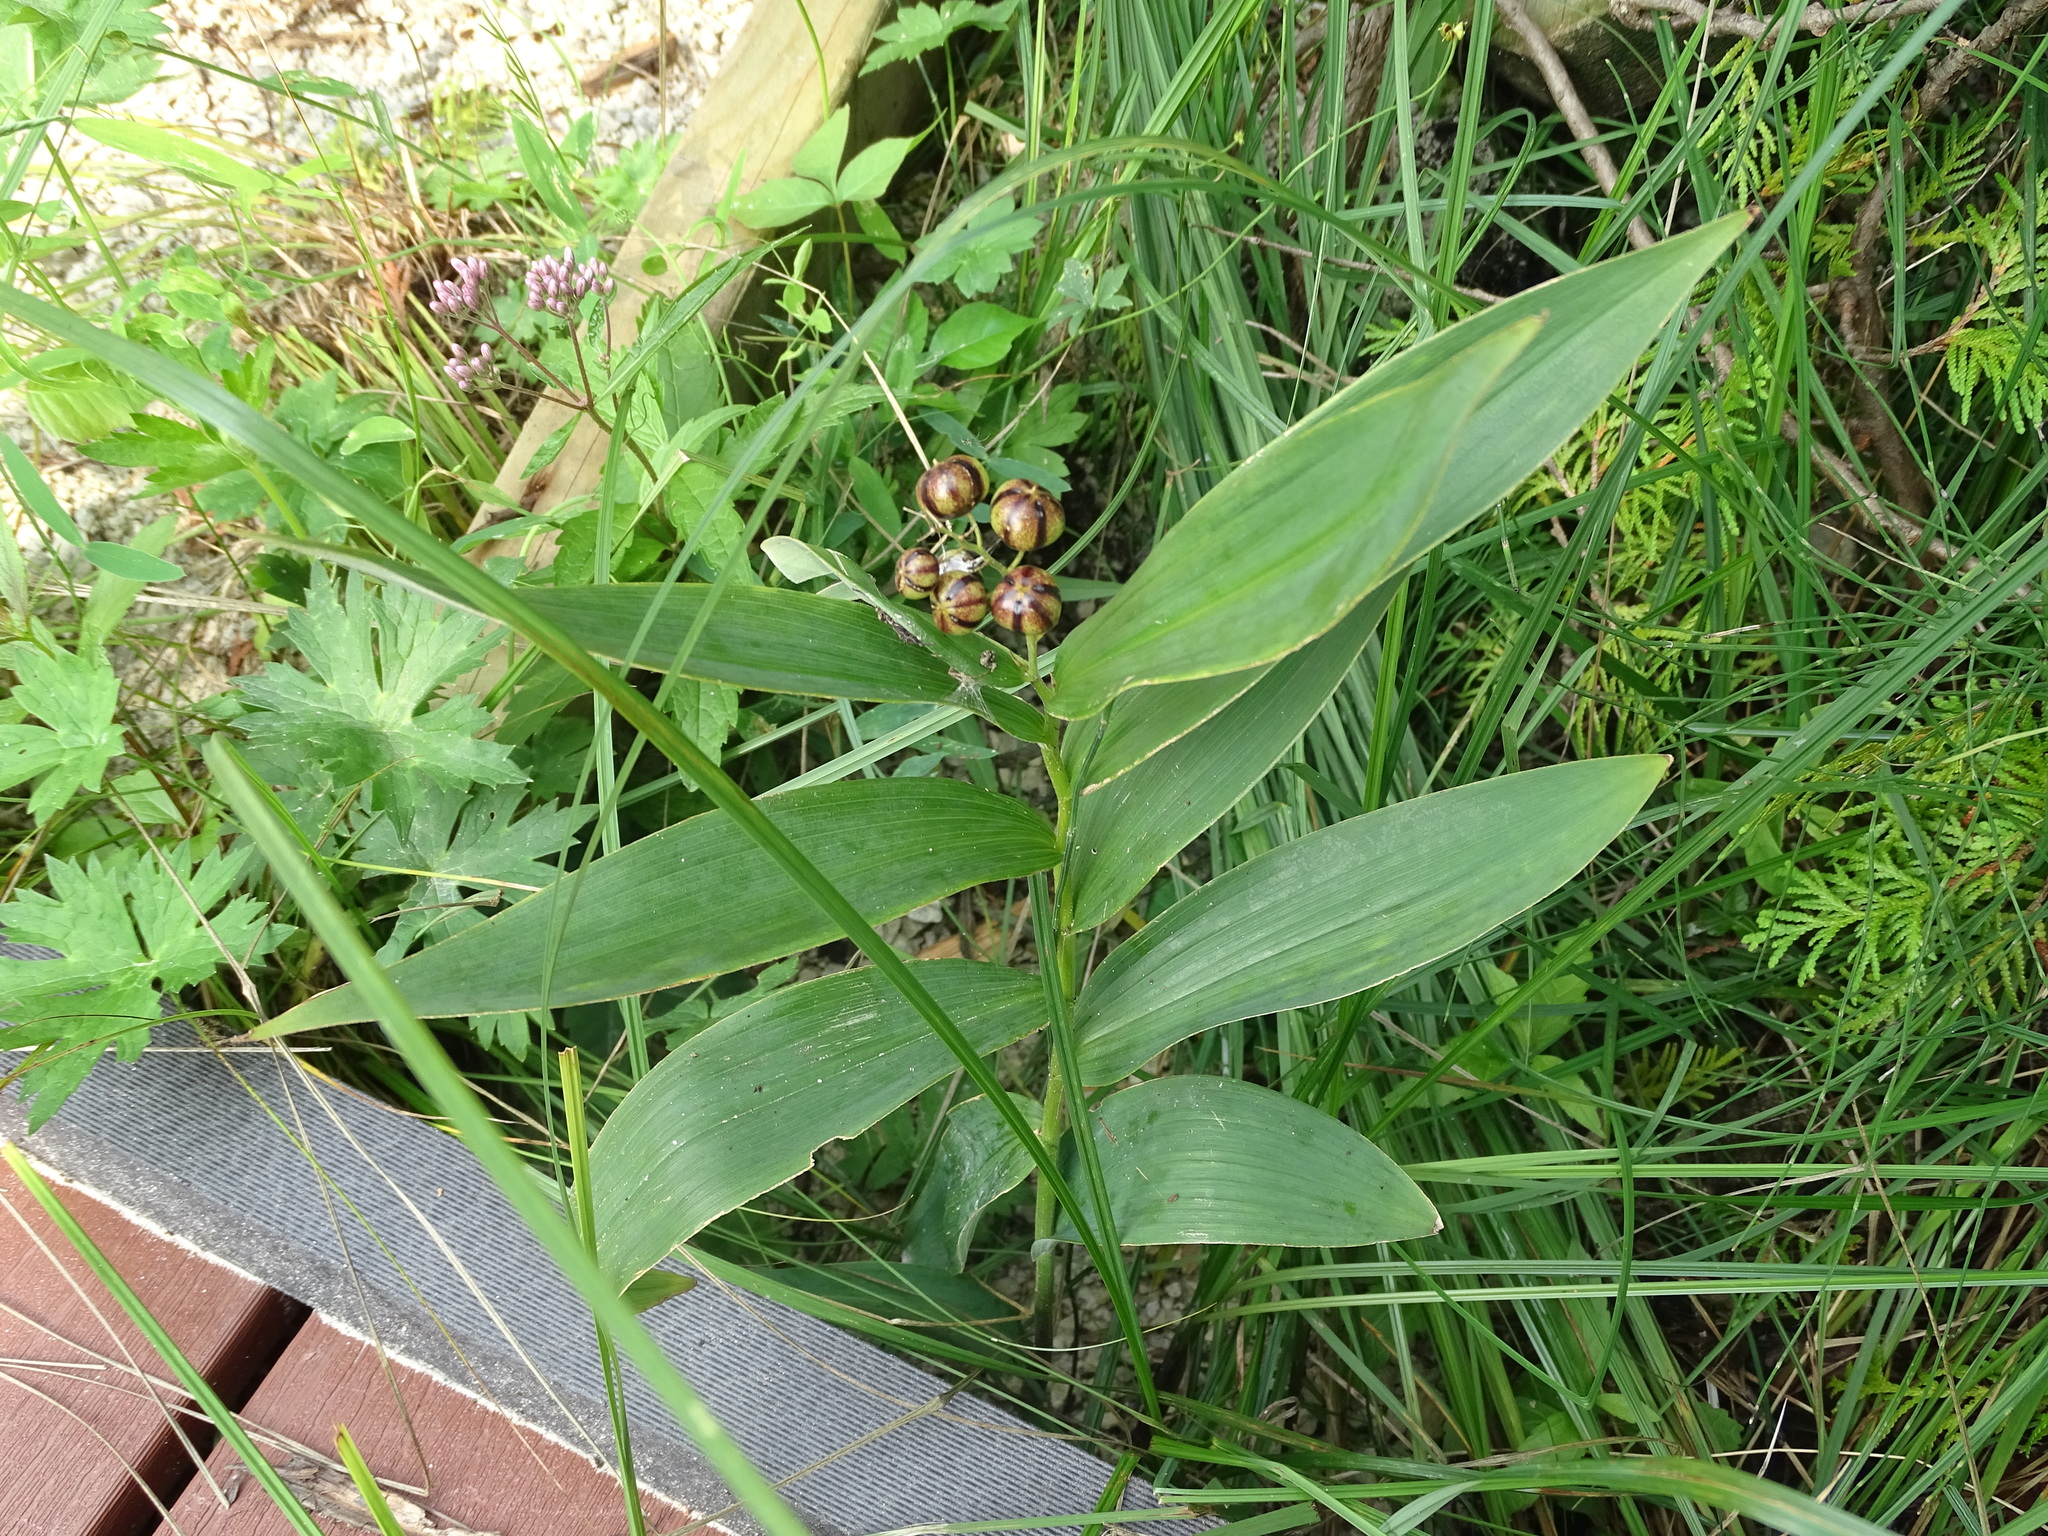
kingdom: Plantae
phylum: Tracheophyta
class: Liliopsida
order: Asparagales
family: Asparagaceae
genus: Maianthemum
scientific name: Maianthemum stellatum
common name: Little false solomon's seal
